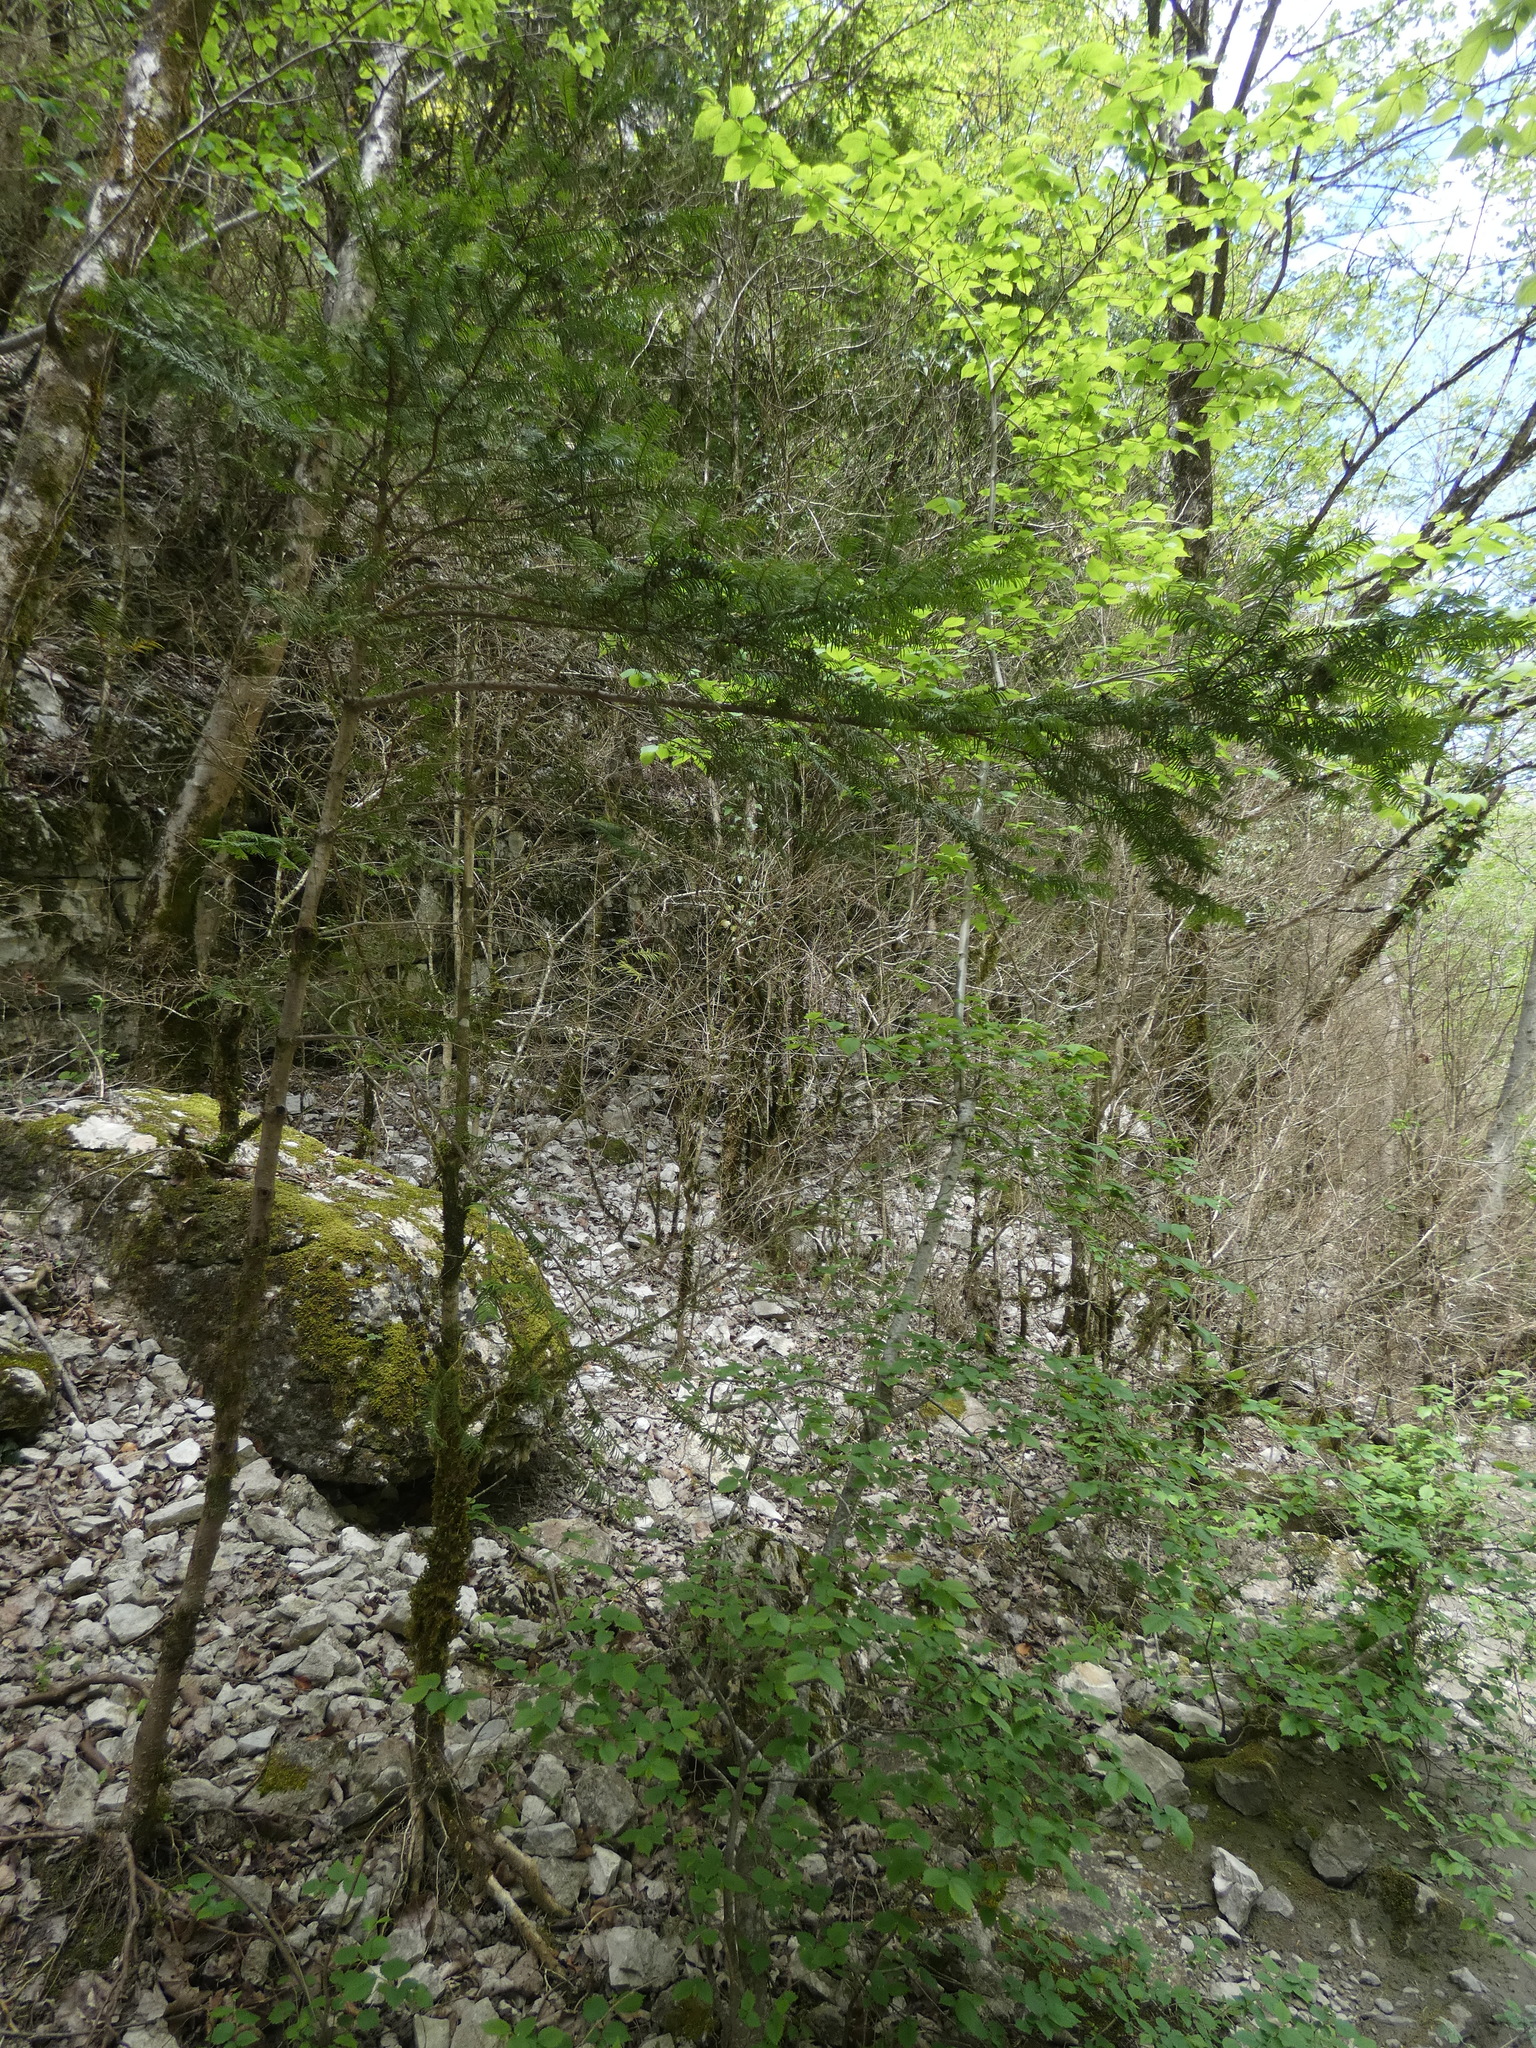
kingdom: Plantae
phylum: Tracheophyta
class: Pinopsida
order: Pinales
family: Taxaceae
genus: Taxus
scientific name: Taxus baccata
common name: Yew
